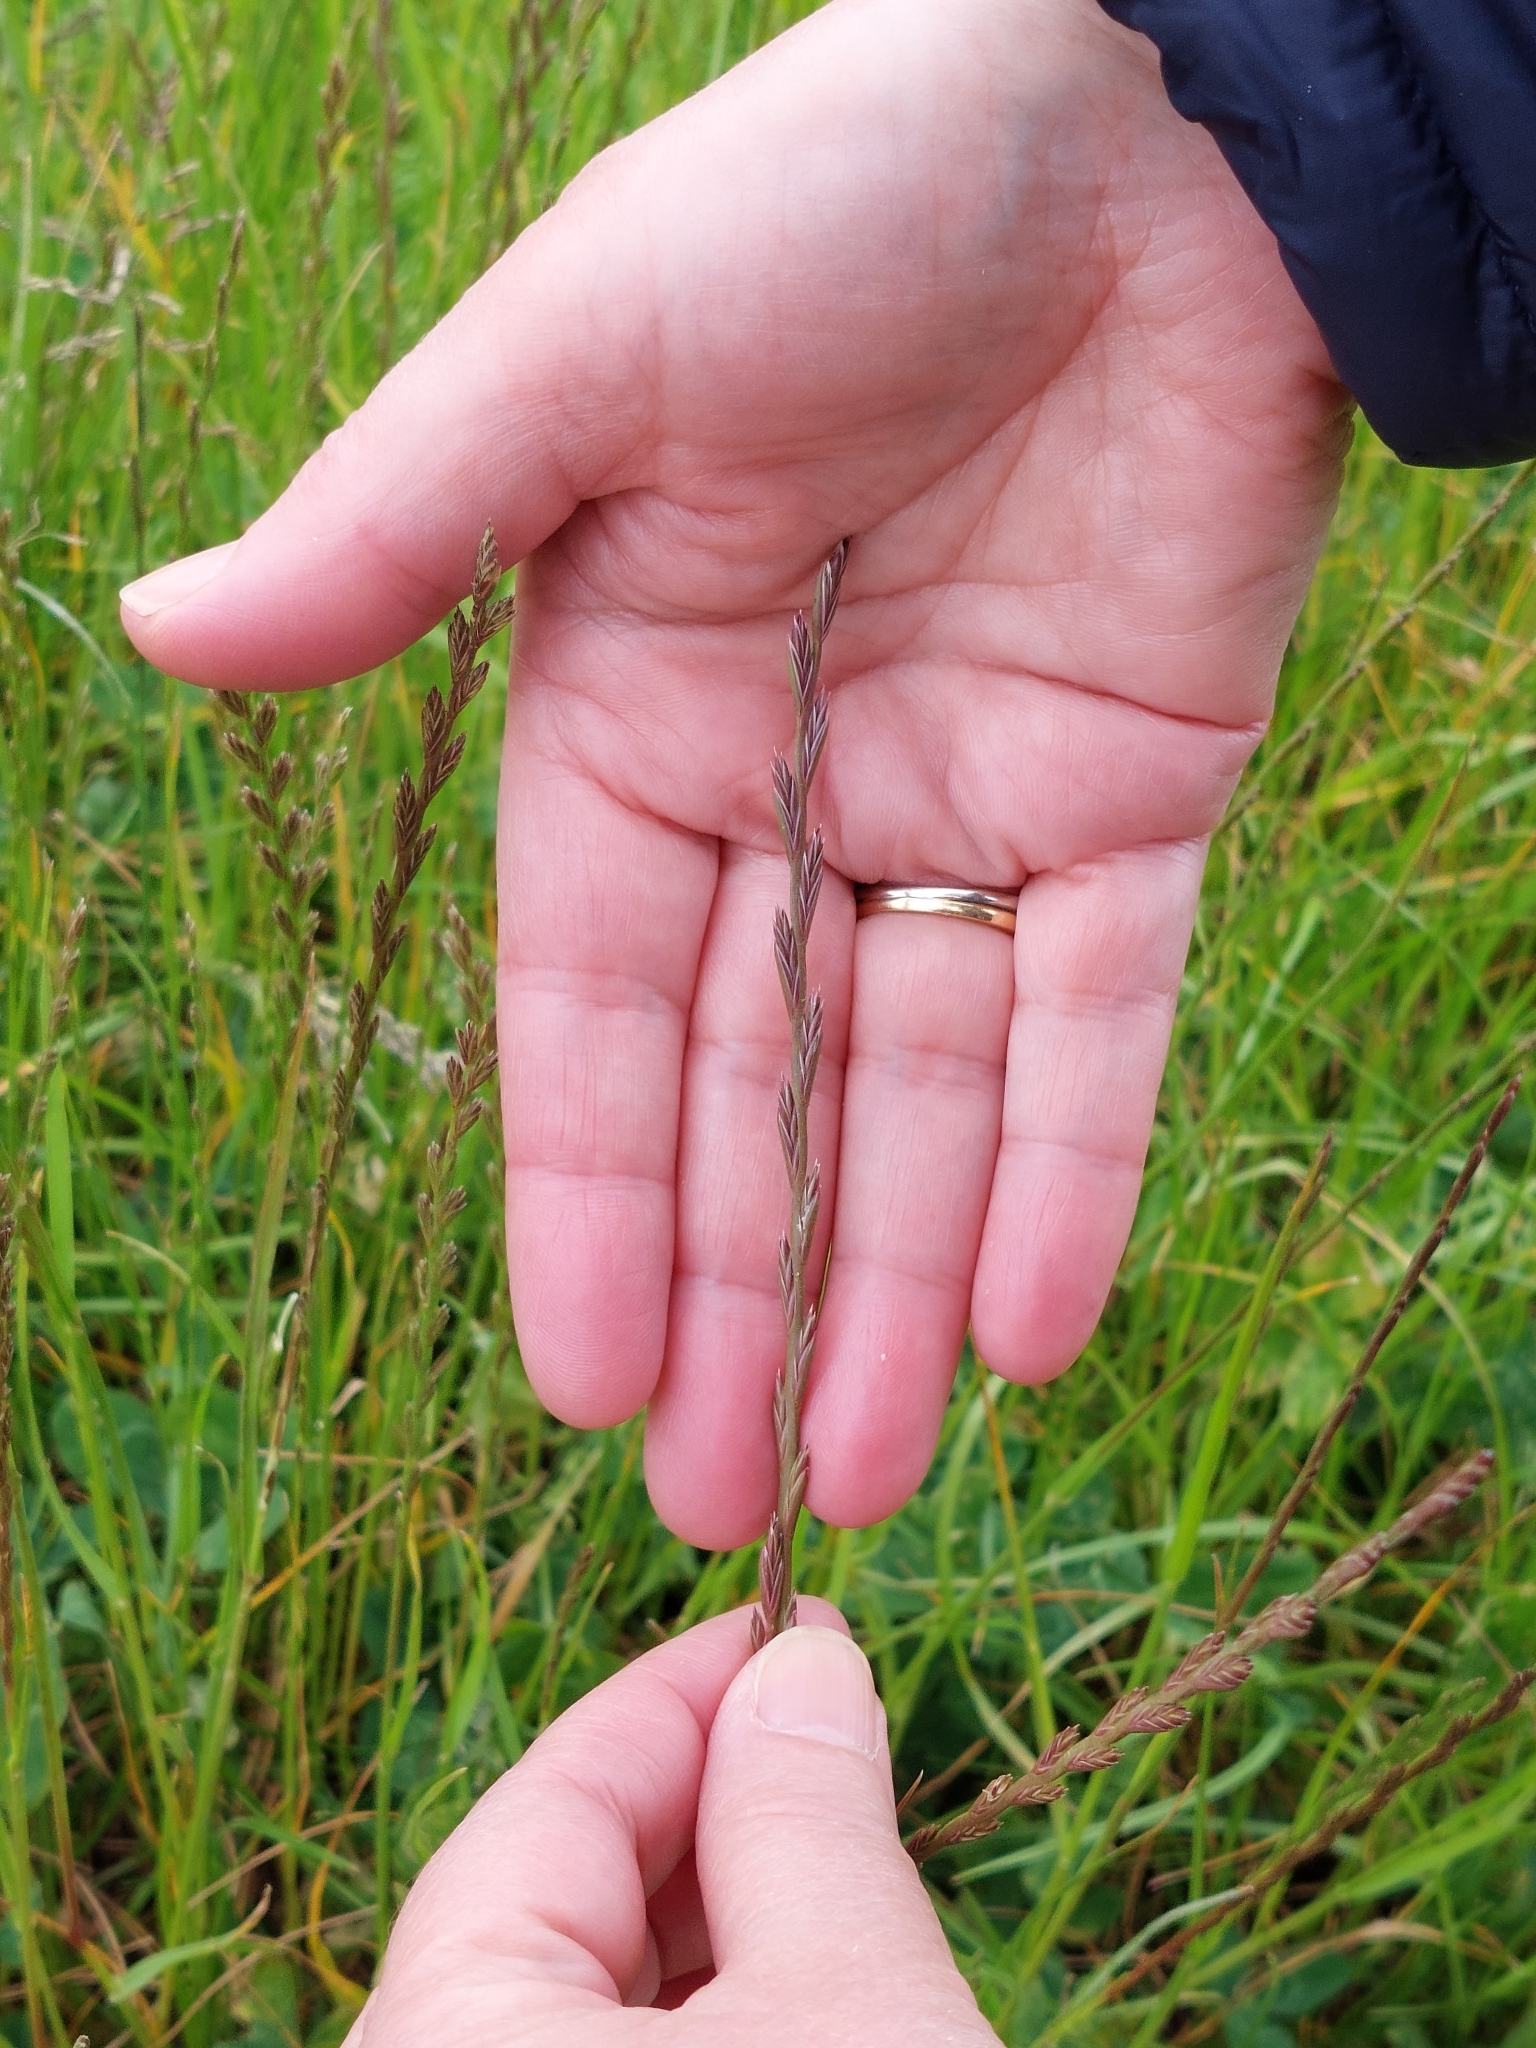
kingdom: Plantae
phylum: Tracheophyta
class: Liliopsida
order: Poales
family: Poaceae
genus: Lolium
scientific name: Lolium perenne
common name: Perennial ryegrass
